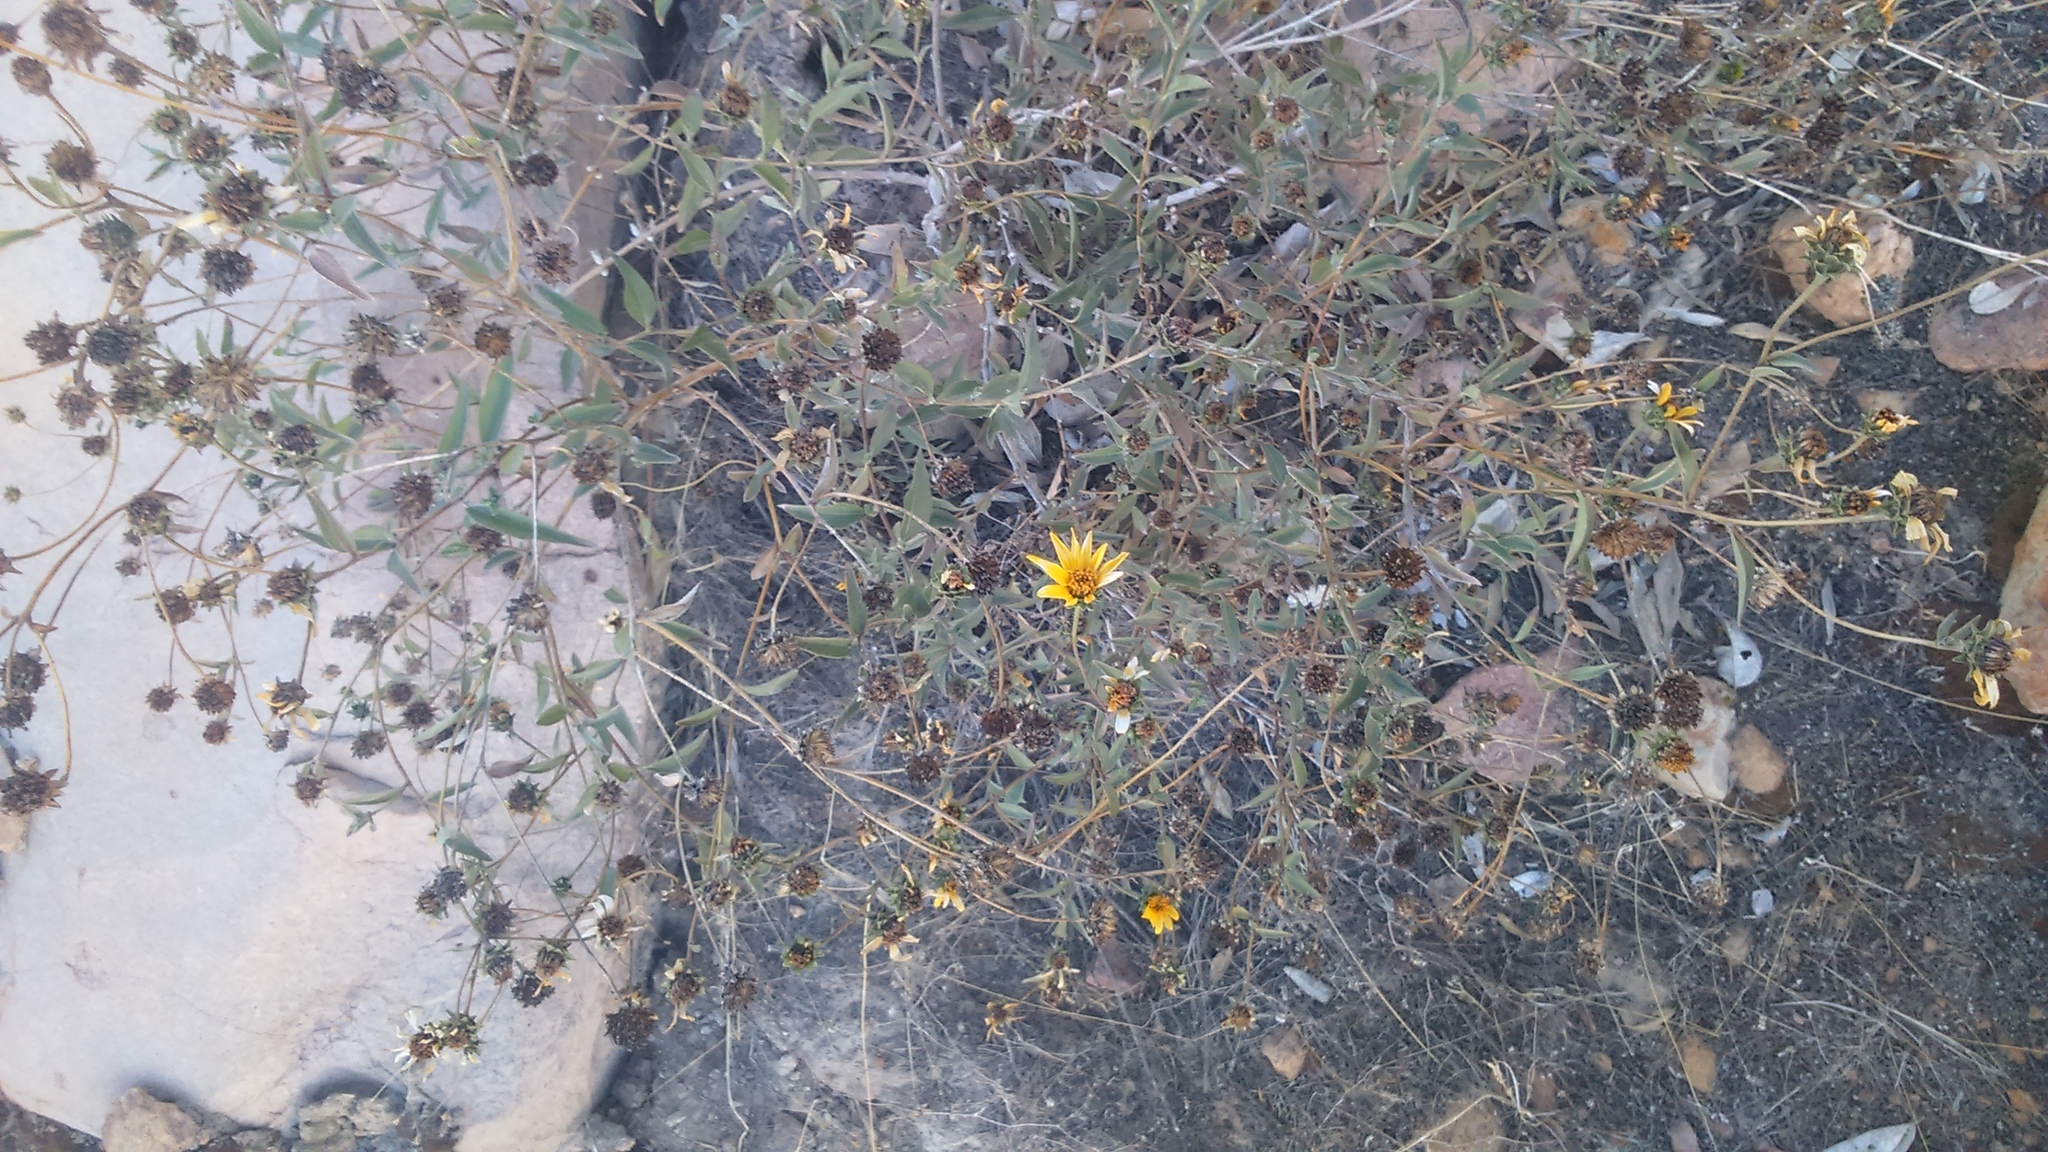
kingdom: Plantae
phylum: Tracheophyta
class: Magnoliopsida
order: Asterales
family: Asteraceae
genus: Aldama
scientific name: Aldama helianthoides
